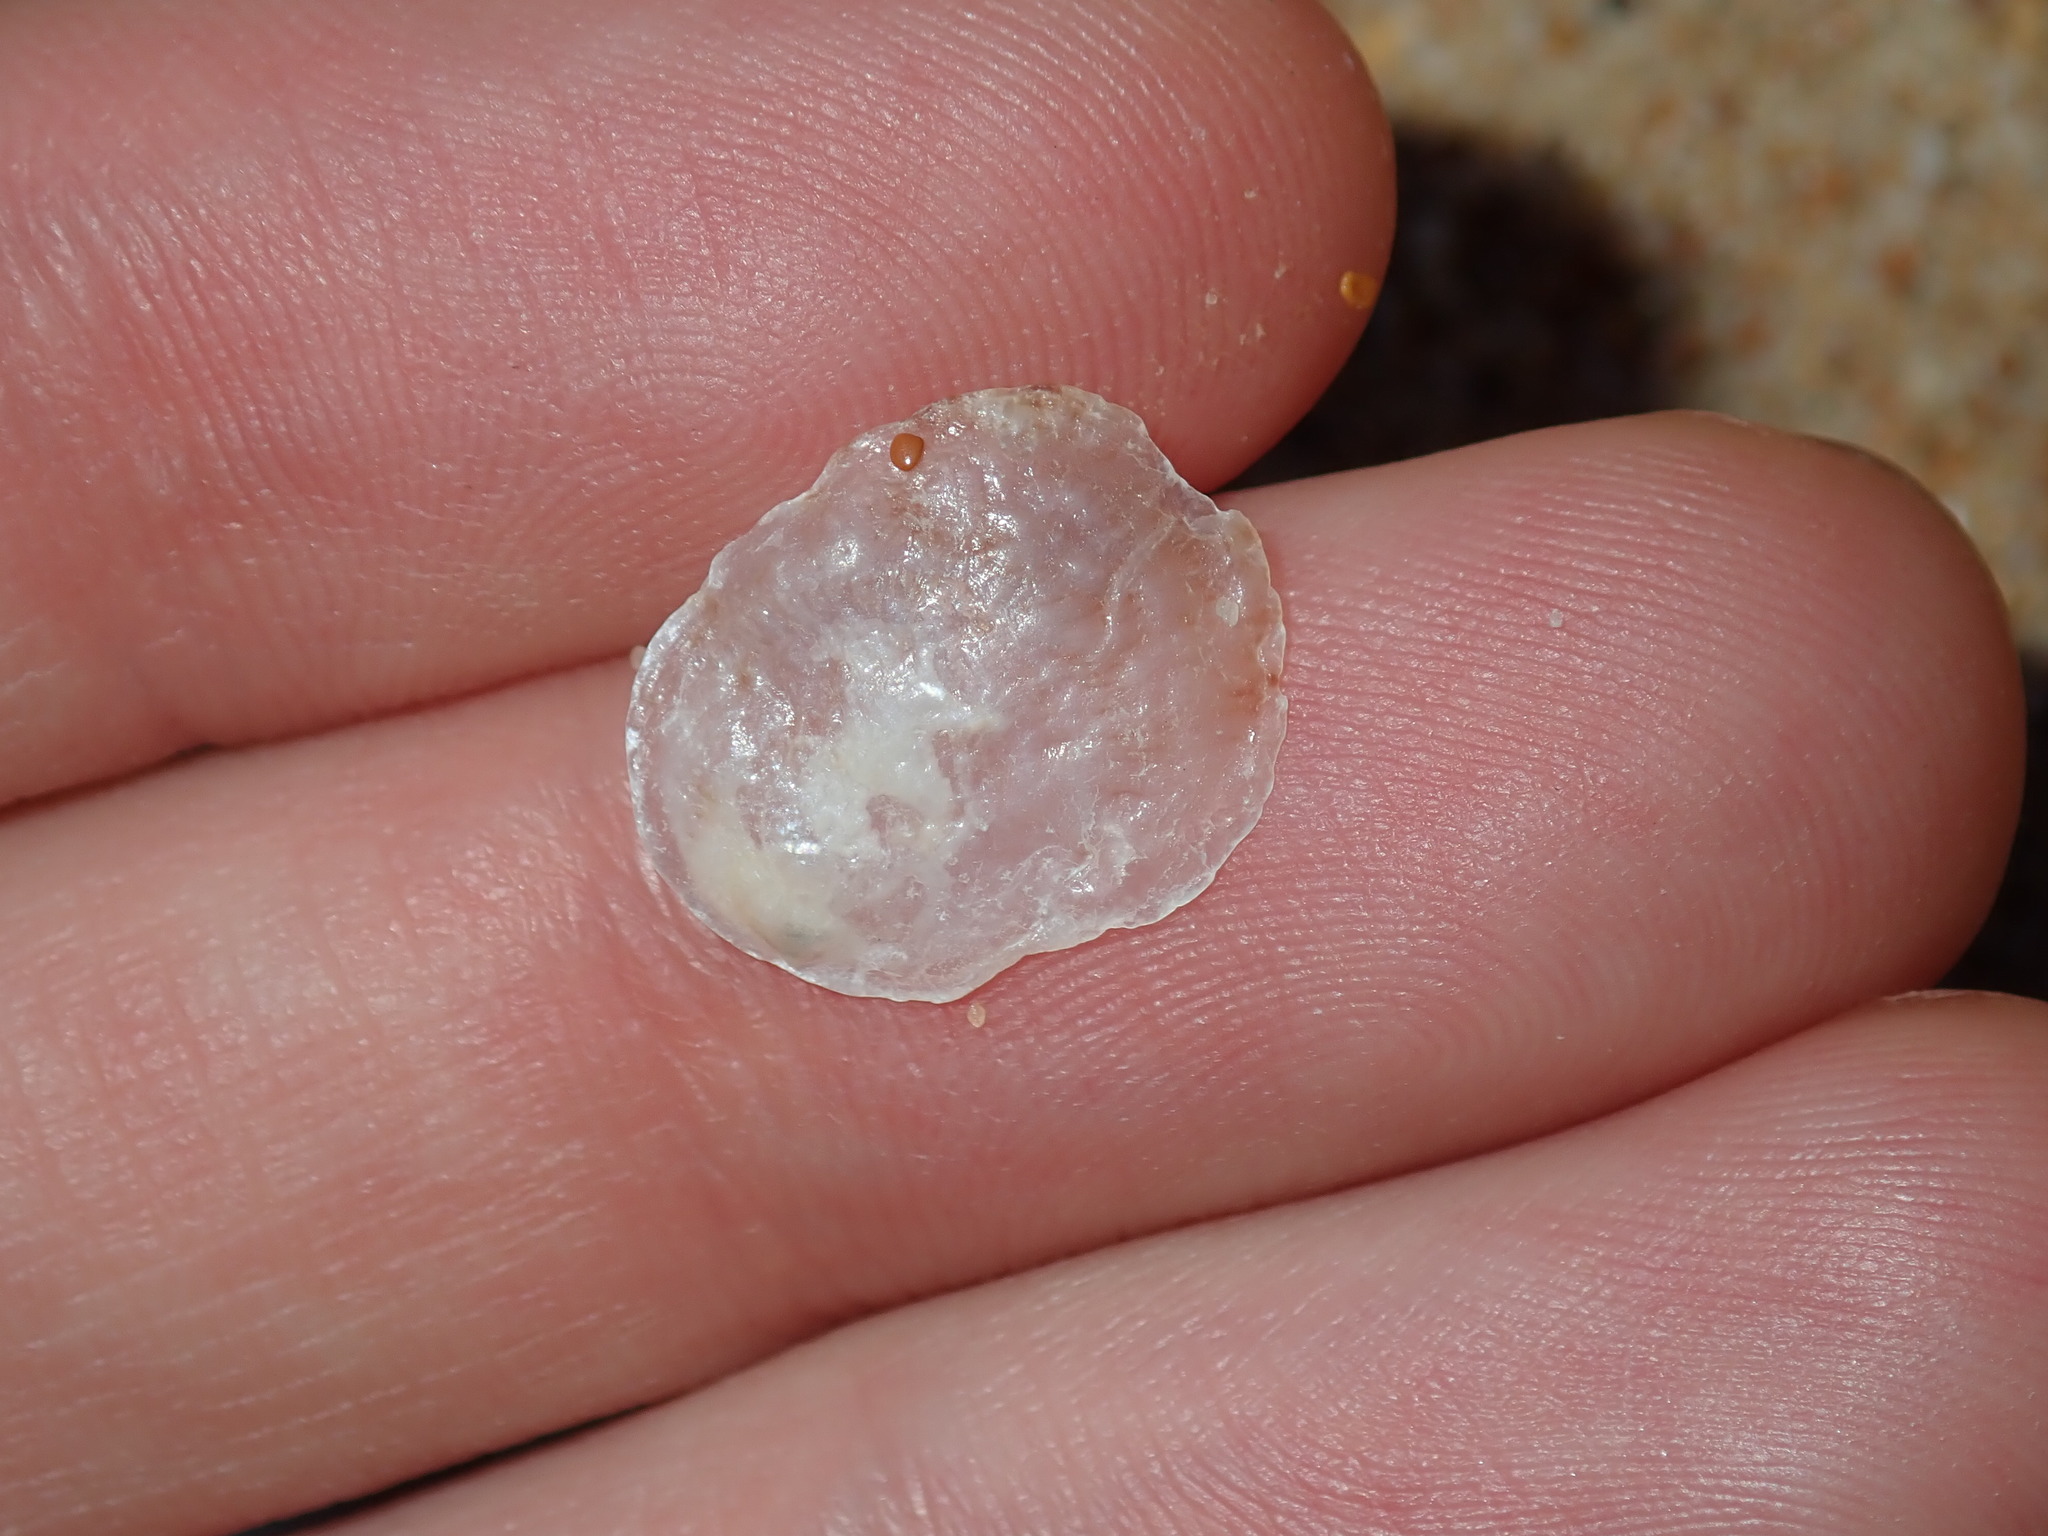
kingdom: Animalia
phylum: Mollusca
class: Bivalvia
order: Pectinida
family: Anomiidae
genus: Anomia
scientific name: Anomia trigonopsis
